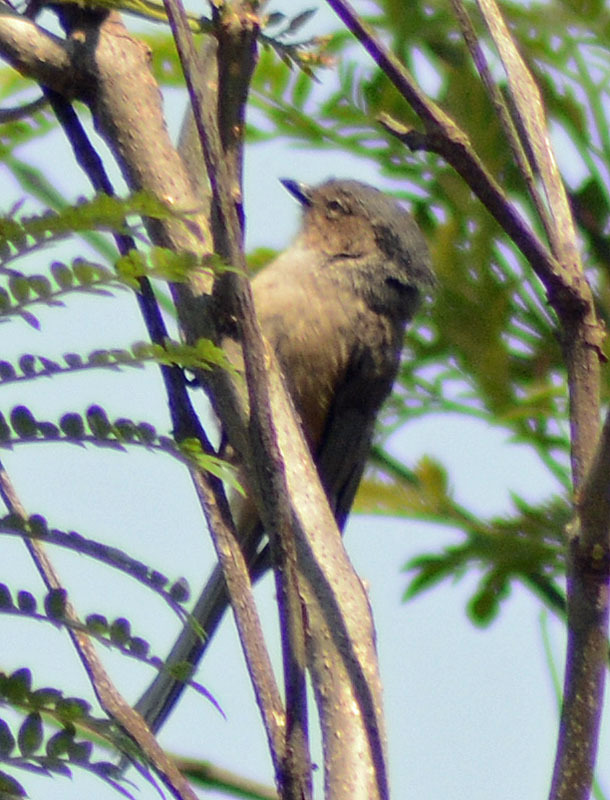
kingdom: Animalia
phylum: Chordata
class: Aves
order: Passeriformes
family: Aegithalidae
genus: Psaltriparus
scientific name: Psaltriparus minimus
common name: American bushtit
